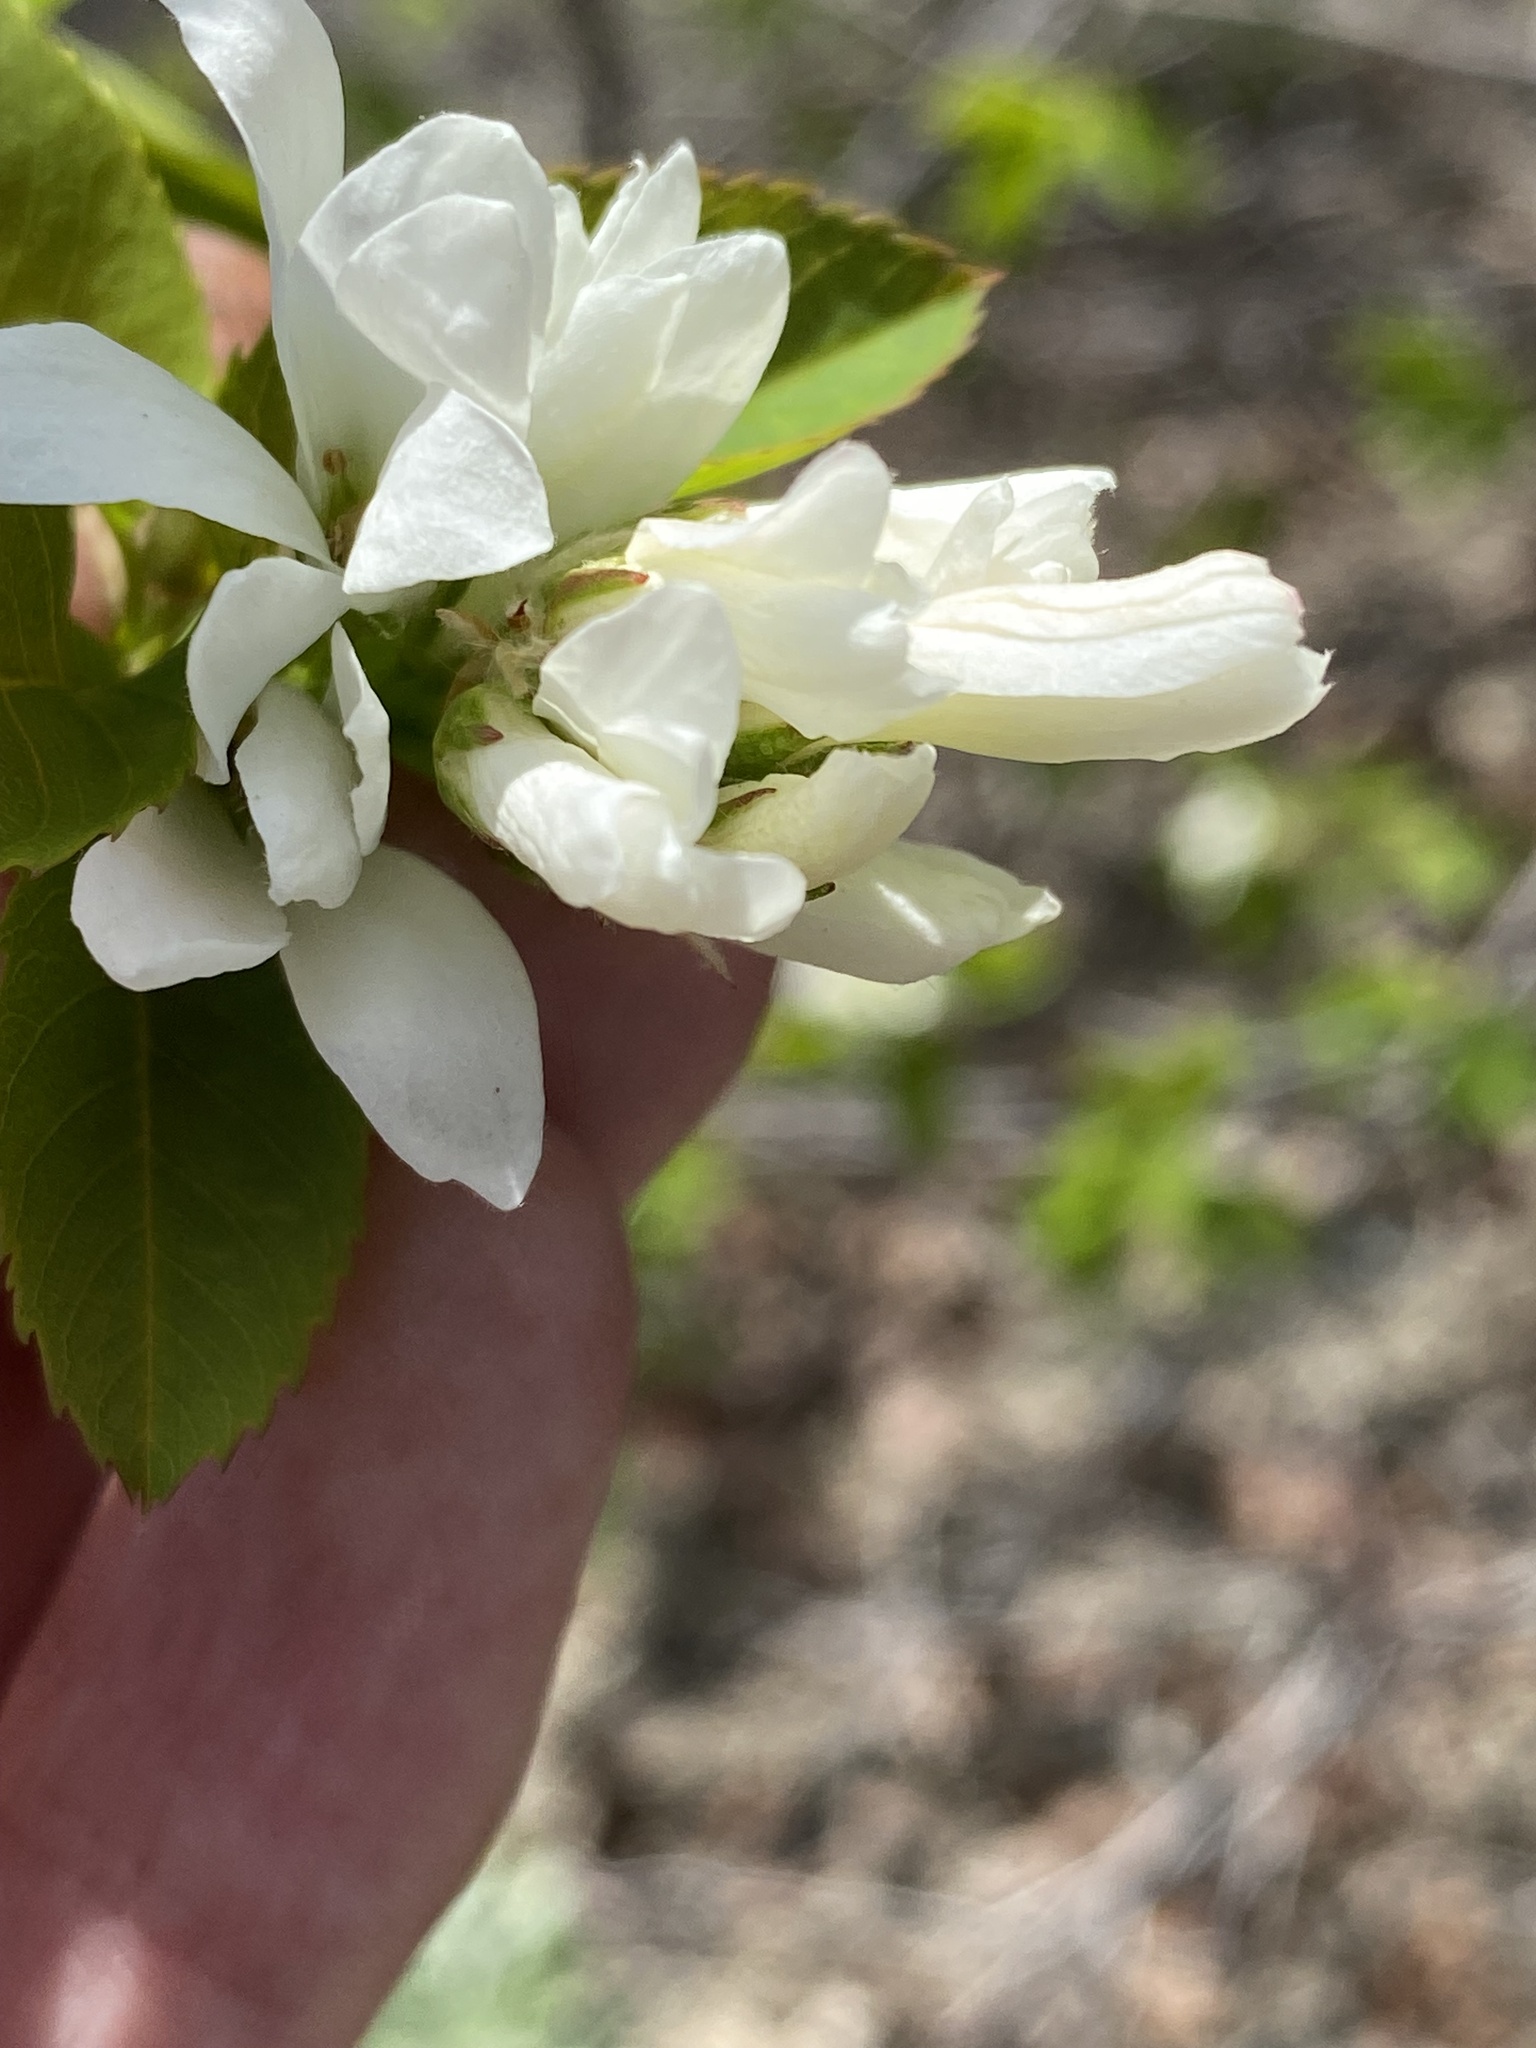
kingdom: Plantae
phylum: Tracheophyta
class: Magnoliopsida
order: Rosales
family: Rosaceae
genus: Amelanchier
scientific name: Amelanchier alnifolia
